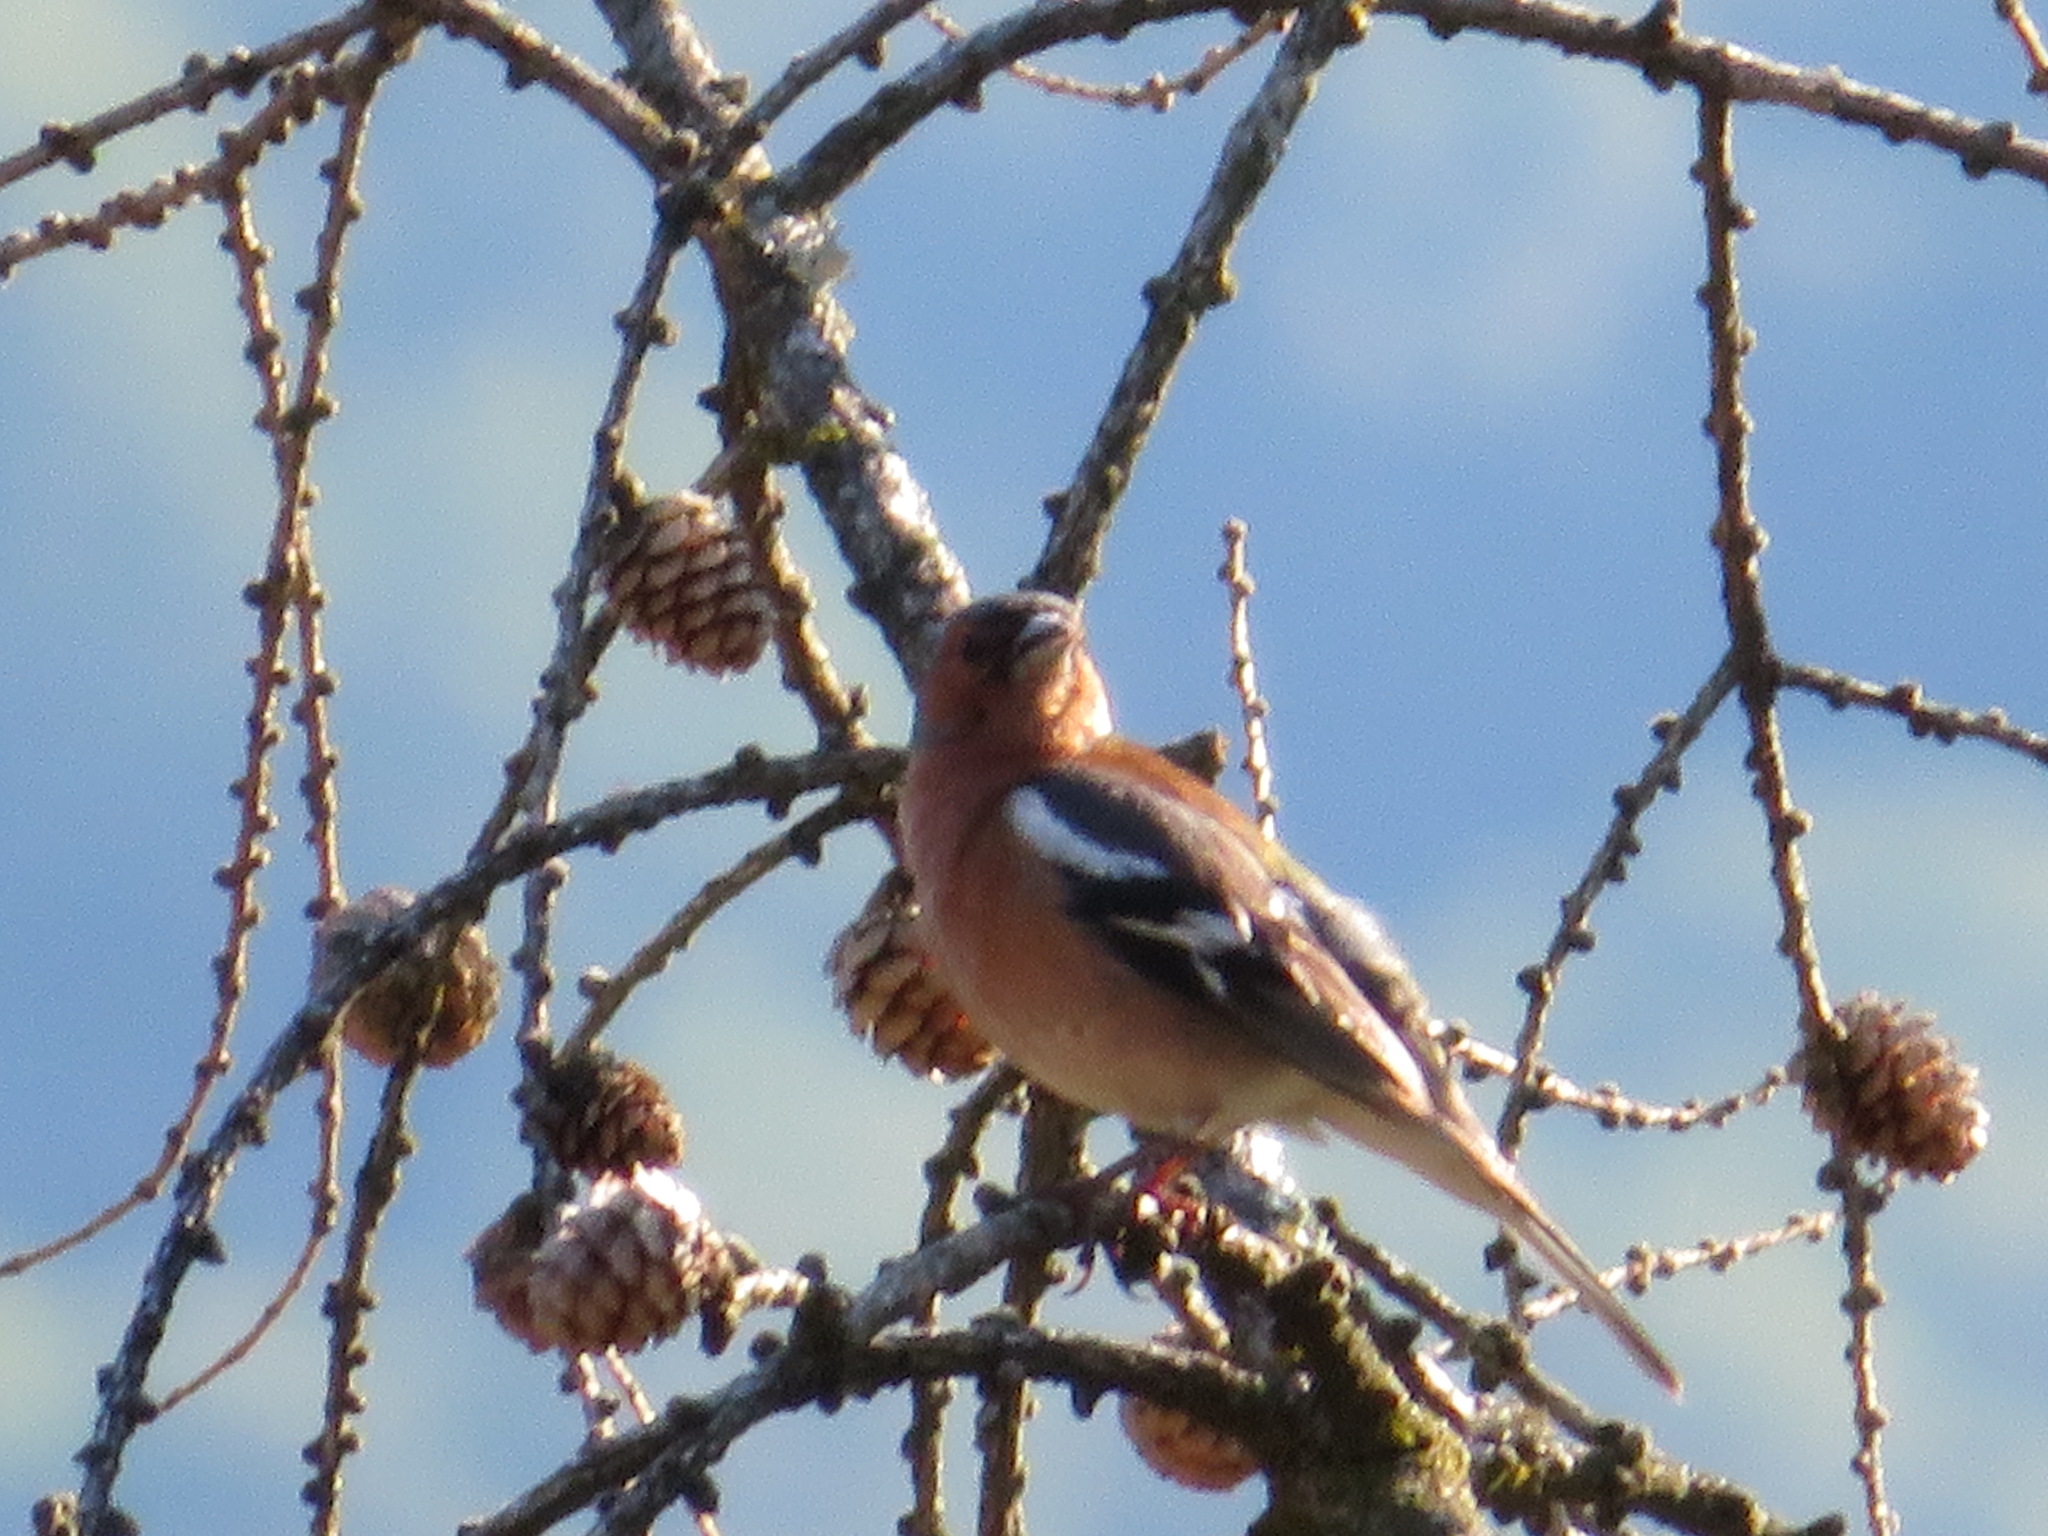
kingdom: Animalia
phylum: Chordata
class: Aves
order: Passeriformes
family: Fringillidae
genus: Fringilla
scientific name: Fringilla coelebs
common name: Common chaffinch
